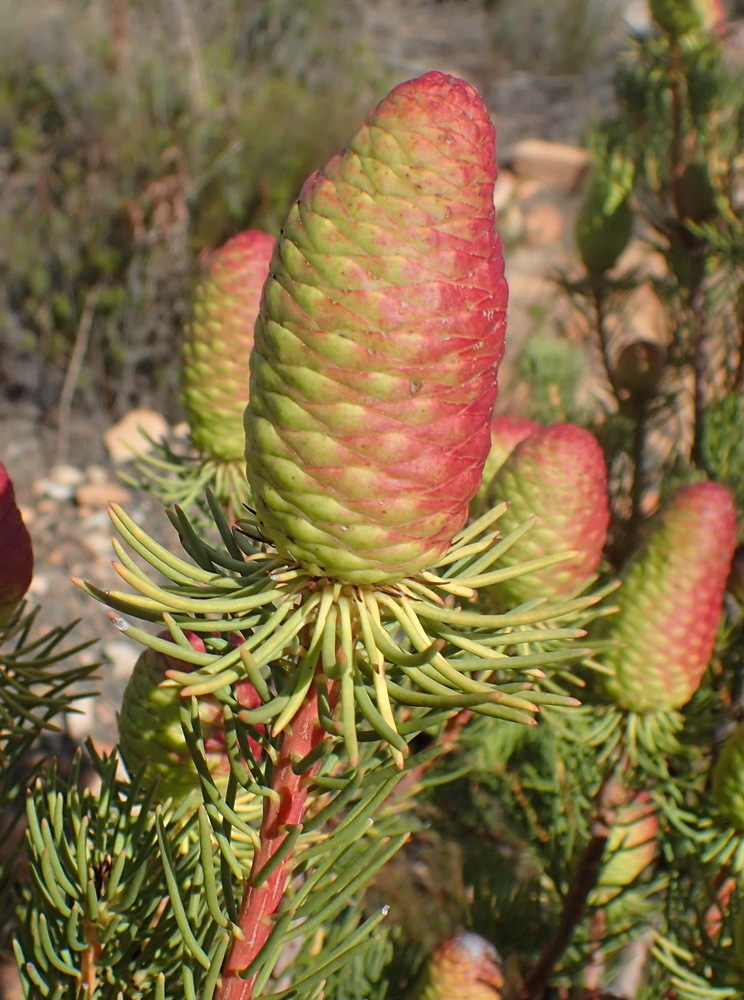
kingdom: Plantae
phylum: Tracheophyta
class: Magnoliopsida
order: Proteales
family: Proteaceae
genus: Leucadendron
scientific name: Leucadendron nobile
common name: Karoo conebush
